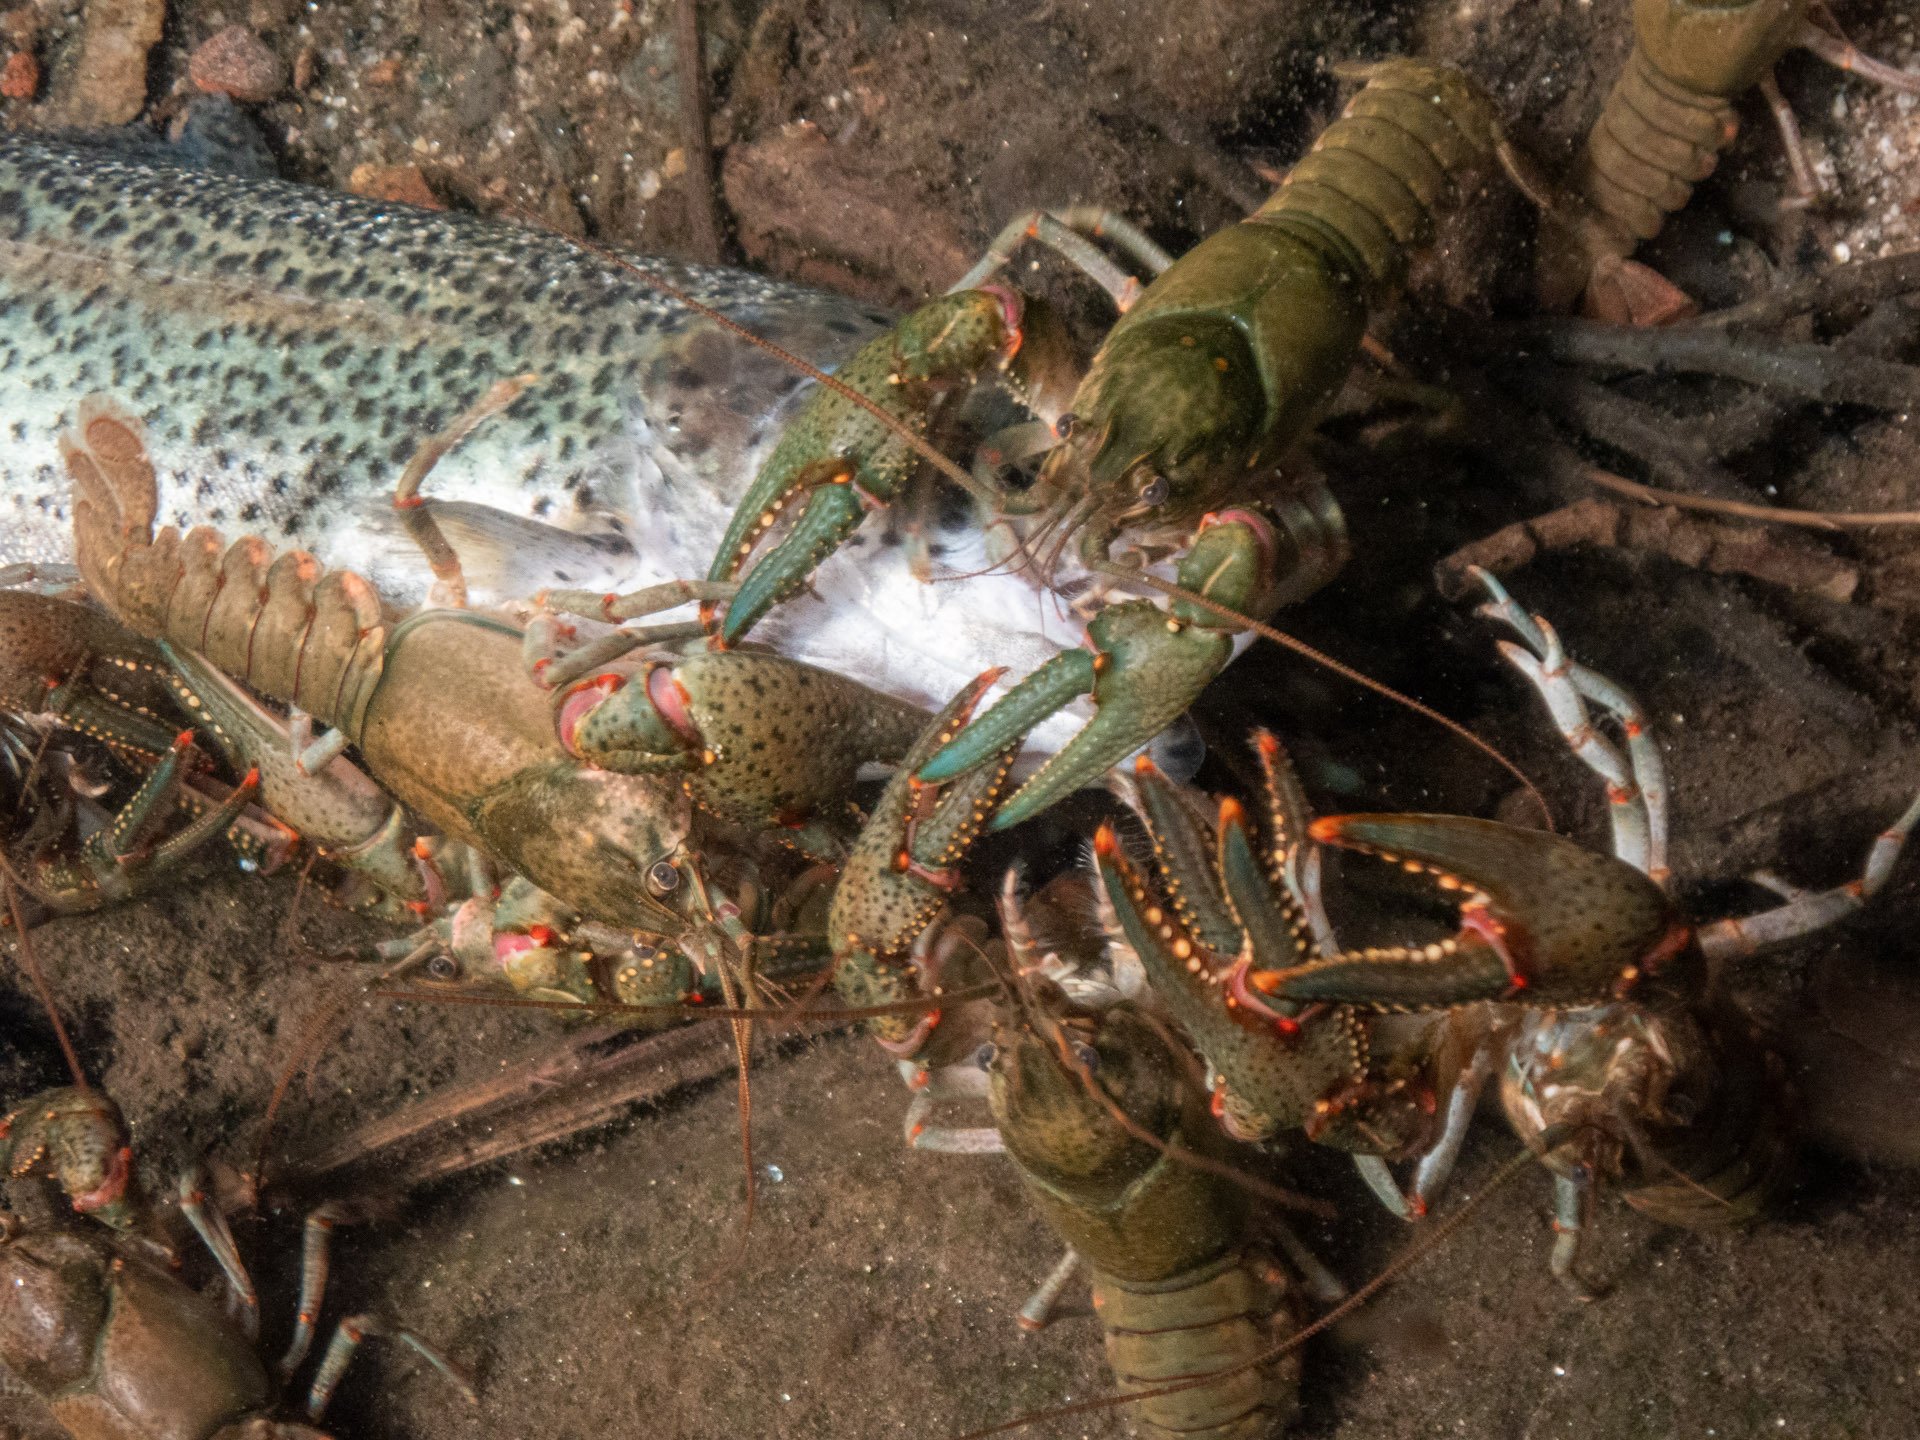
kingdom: Animalia
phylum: Arthropoda
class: Malacostraca
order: Decapoda
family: Cambaridae
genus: Faxonius
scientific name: Faxonius virilis
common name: Virile crayfish
